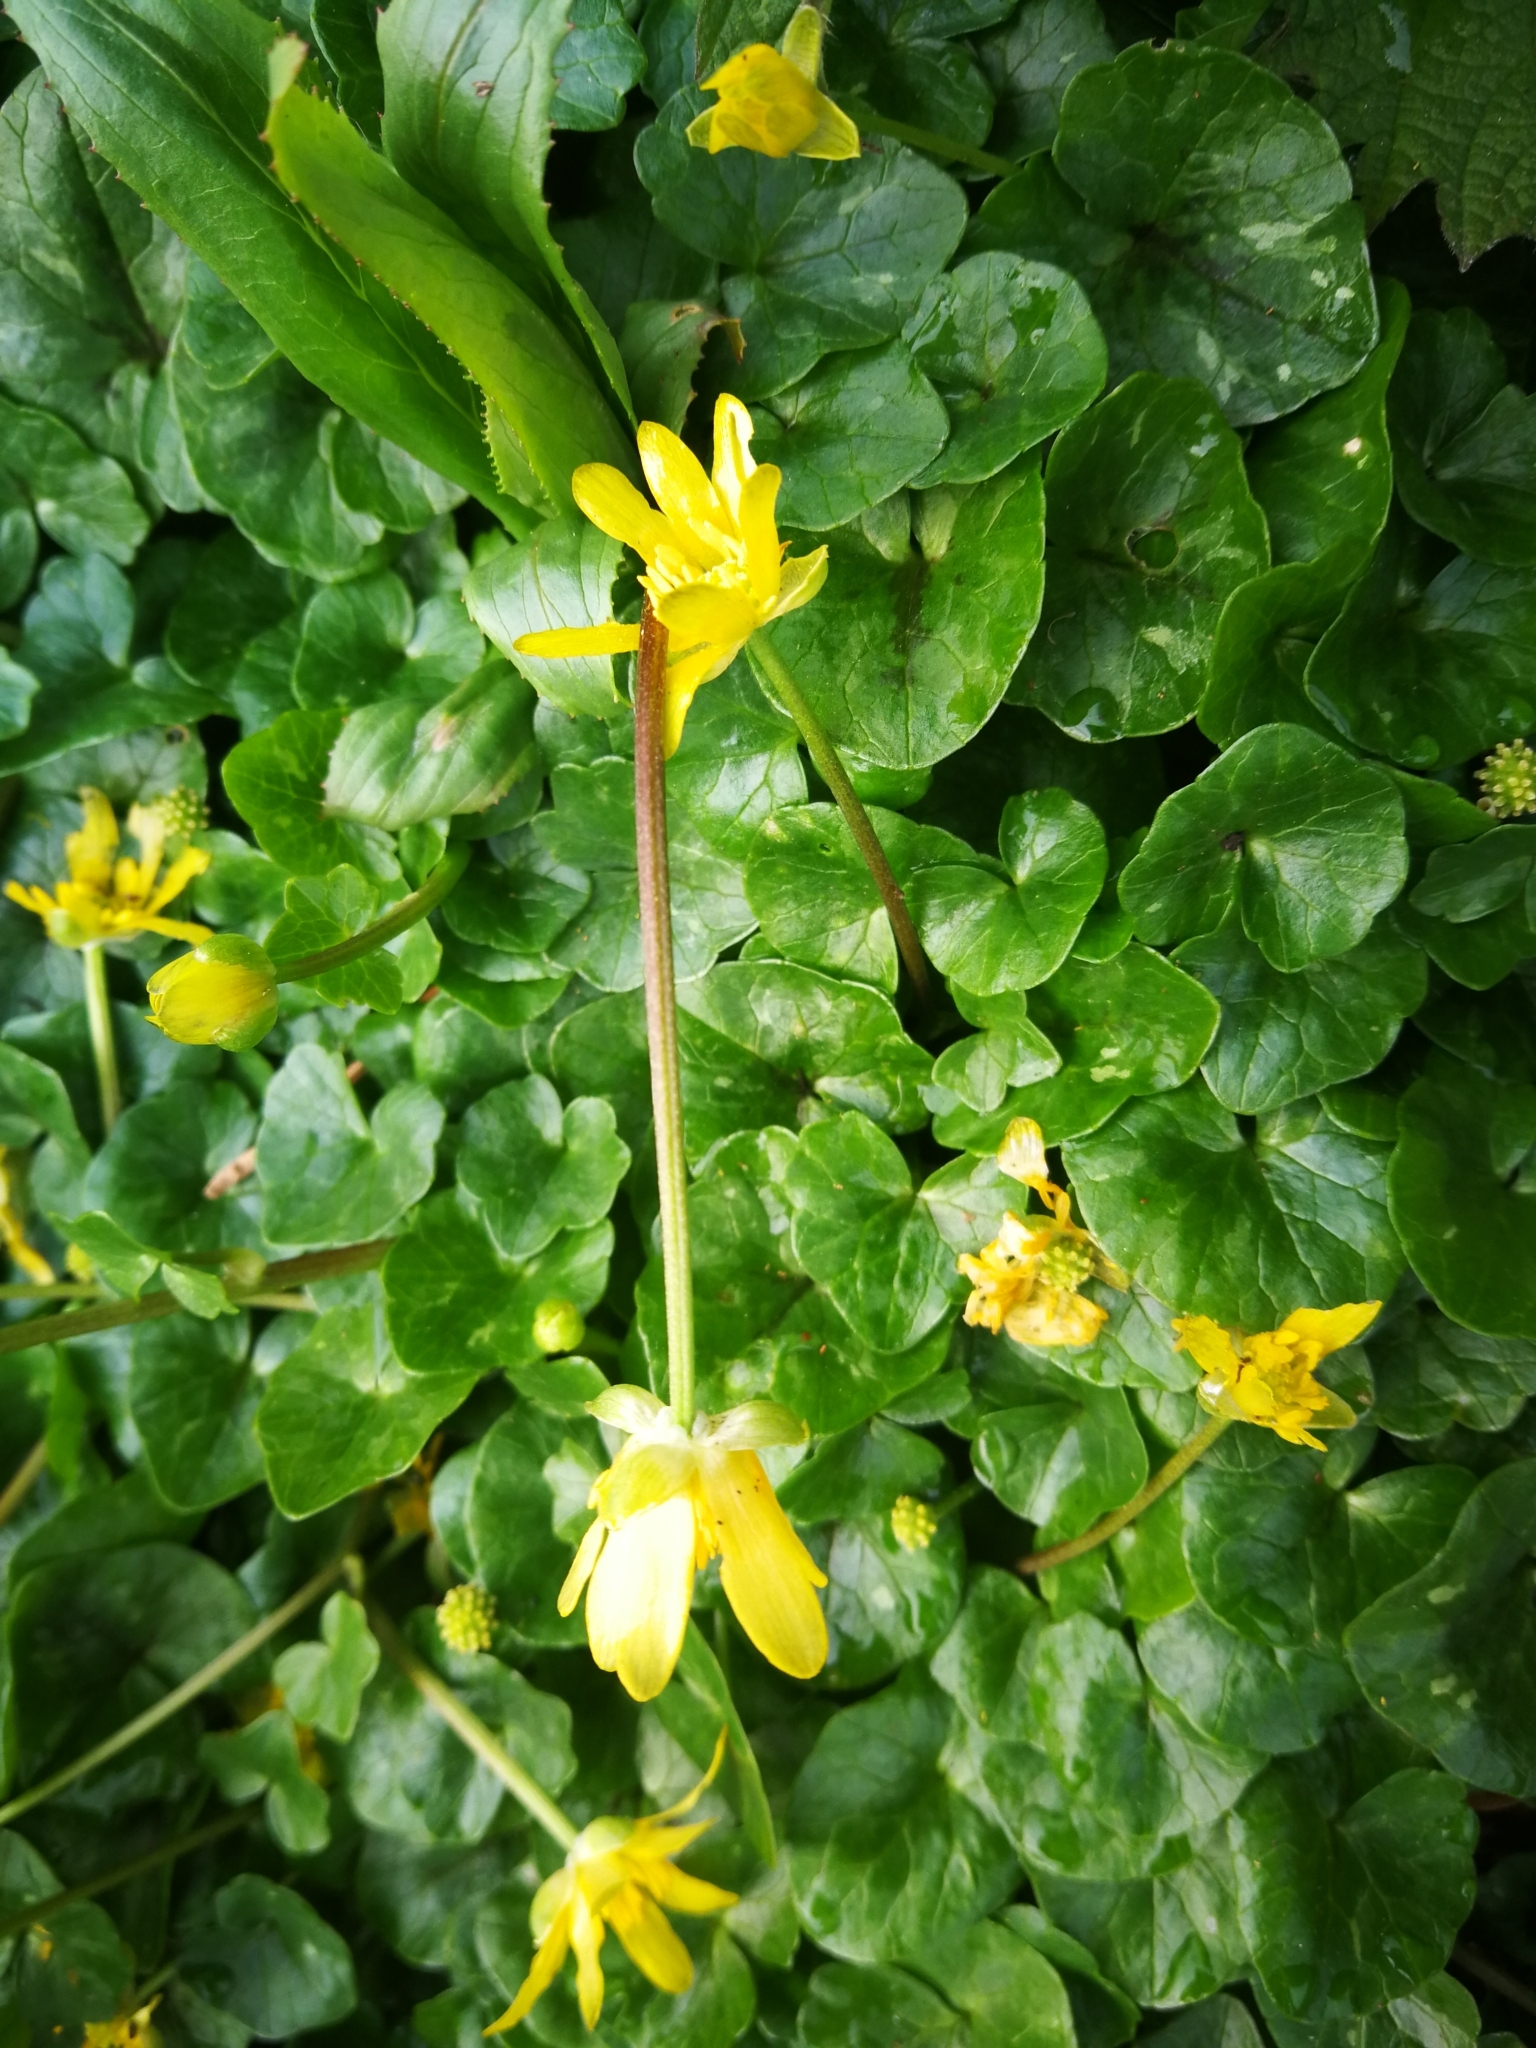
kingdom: Plantae
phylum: Tracheophyta
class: Magnoliopsida
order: Ranunculales
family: Ranunculaceae
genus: Ficaria
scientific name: Ficaria verna
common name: Lesser celandine
